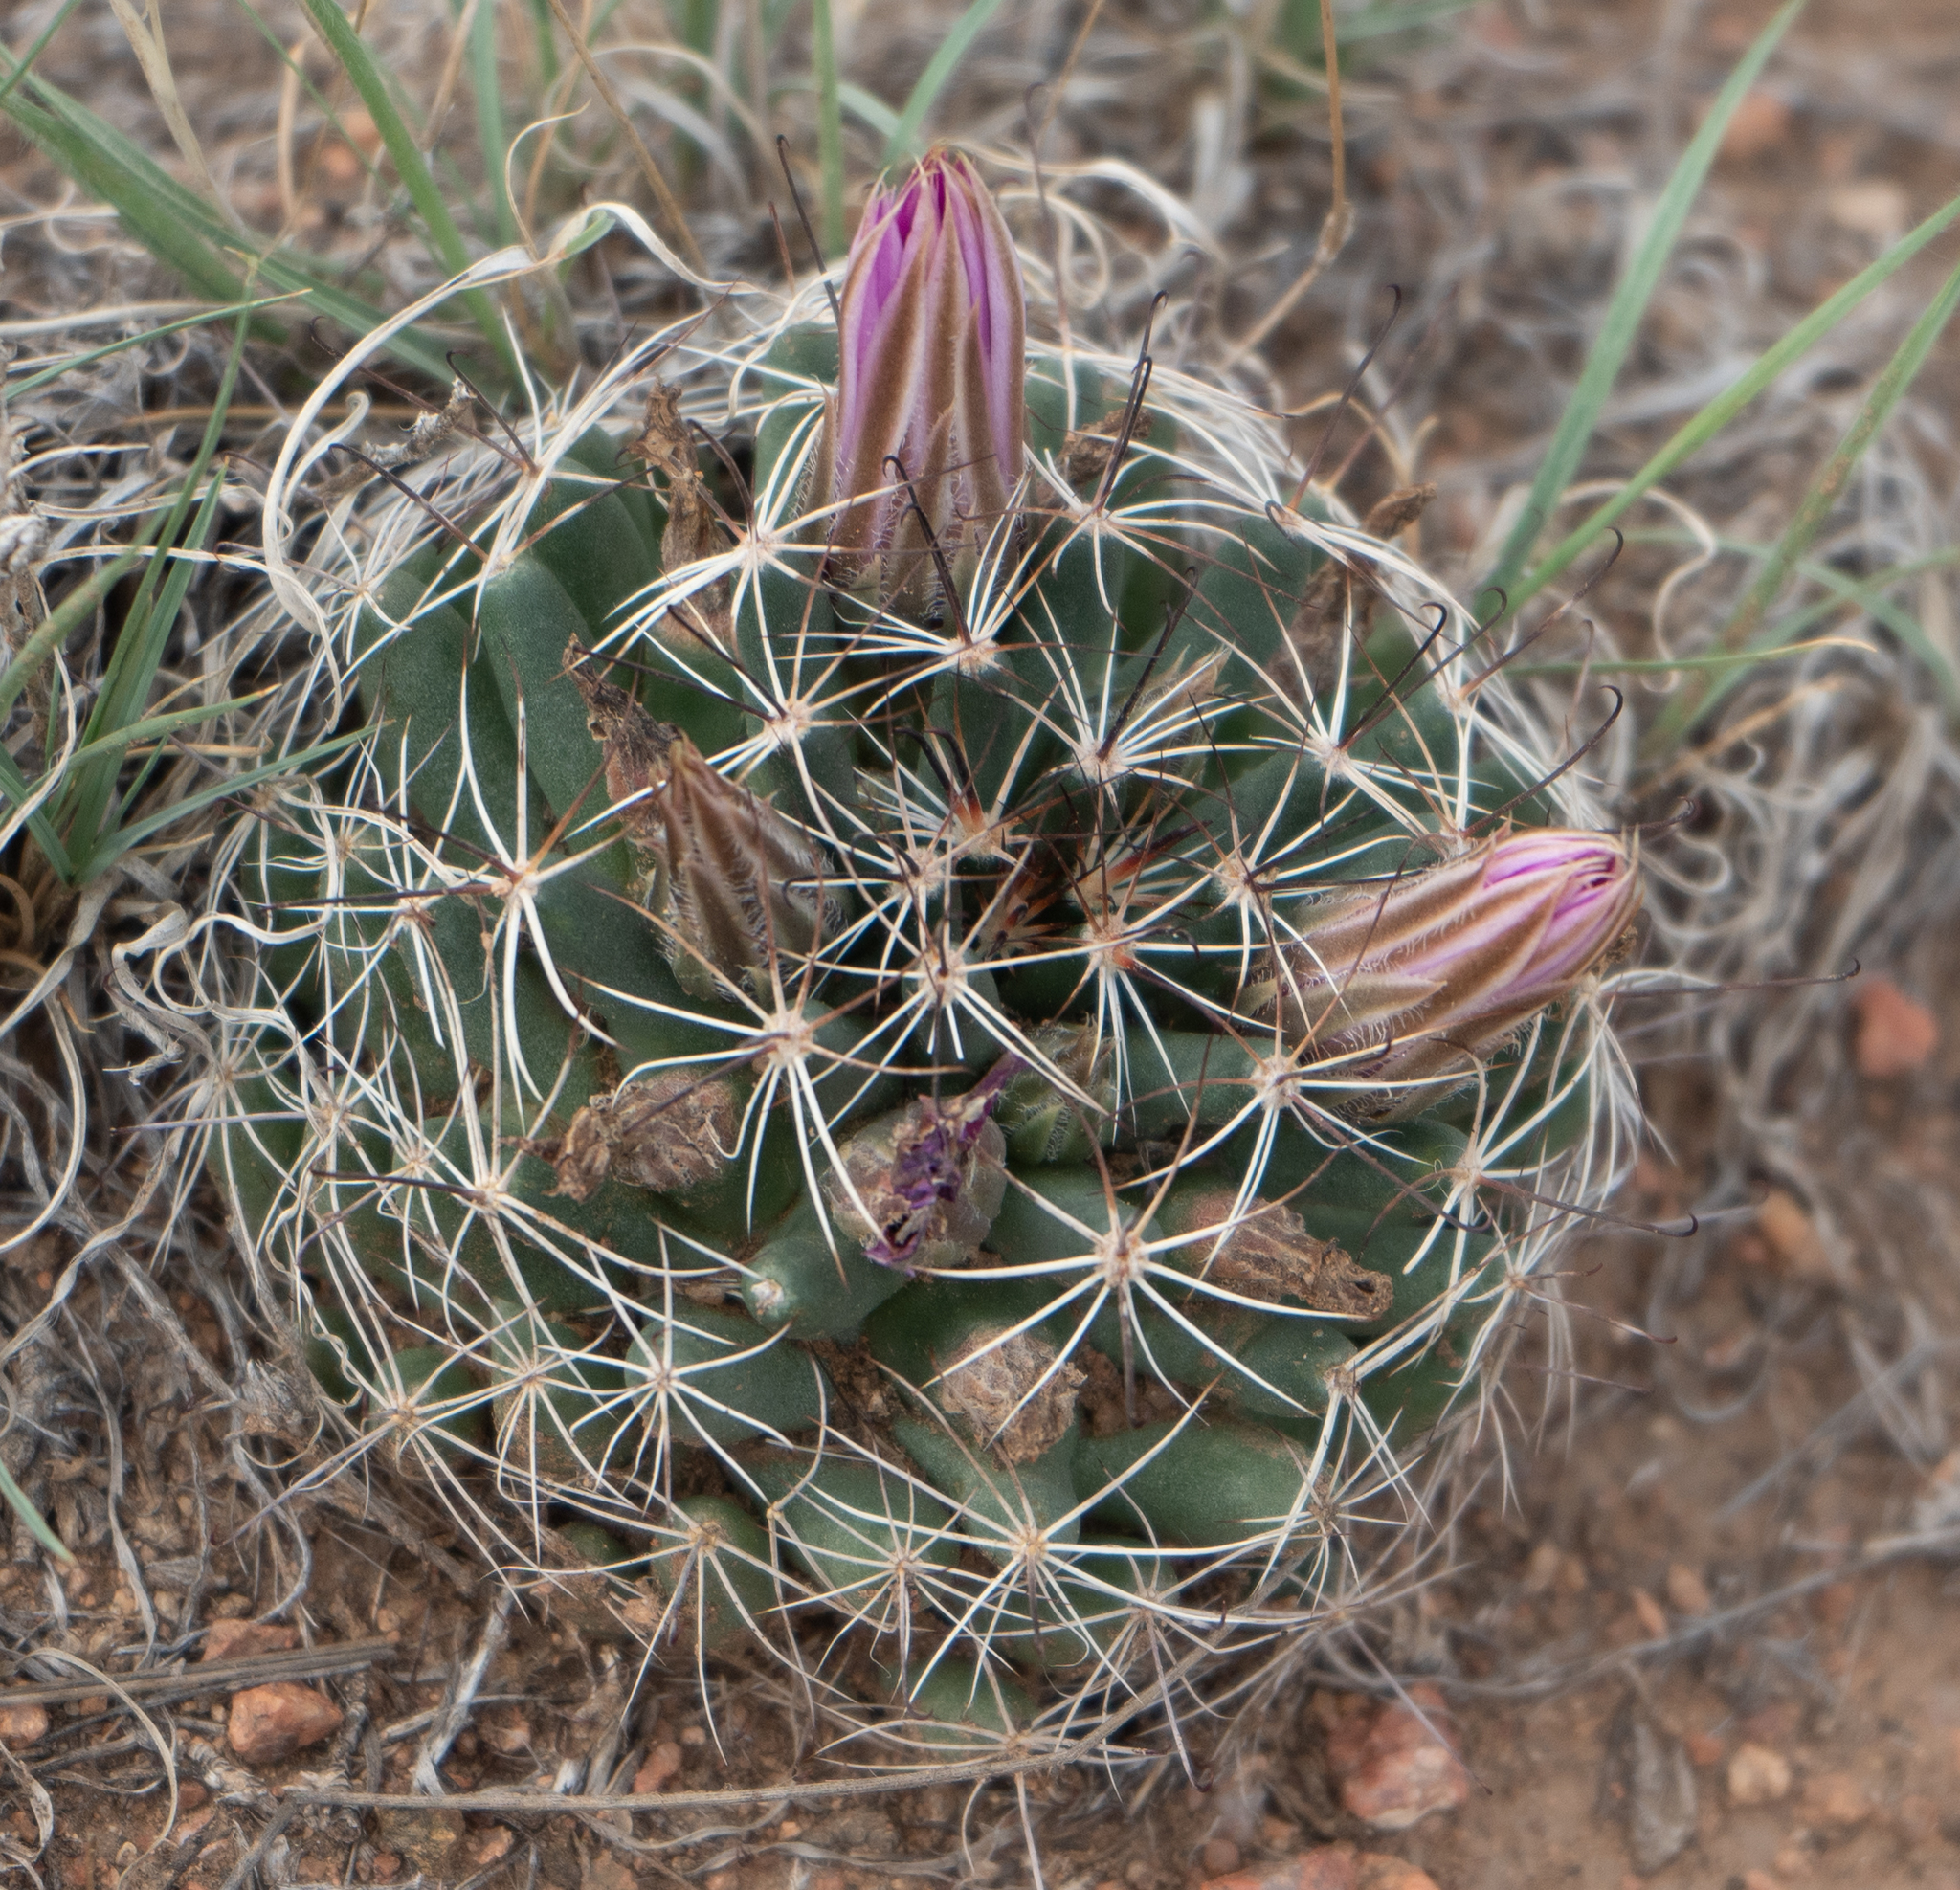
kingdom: Plantae
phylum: Tracheophyta
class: Magnoliopsida
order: Caryophyllales
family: Cactaceae
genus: Cochemiea
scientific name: Cochemiea wrightii
